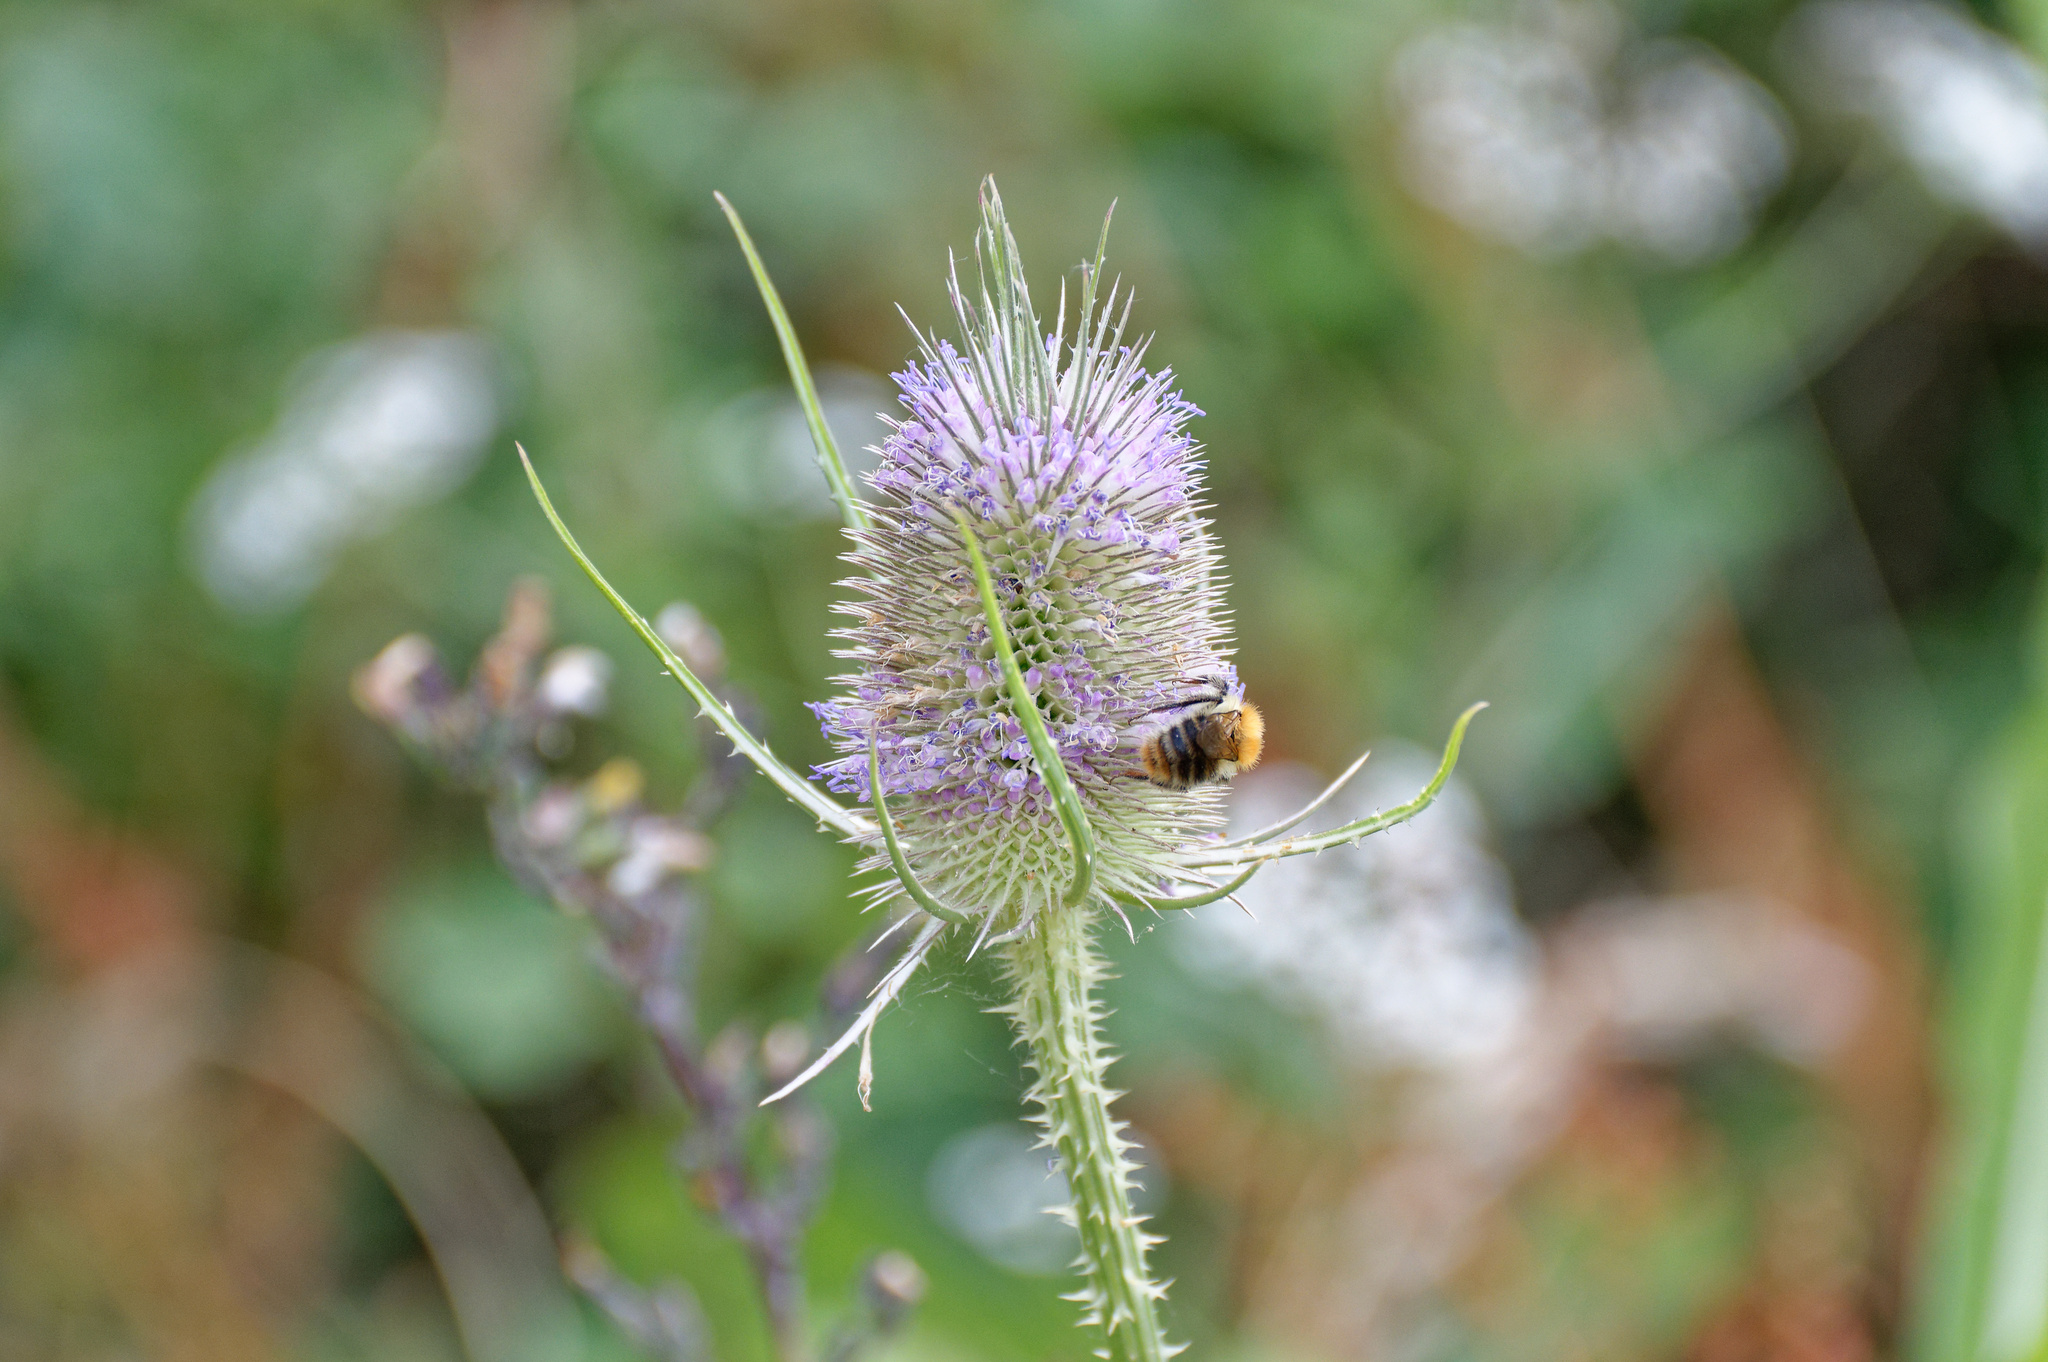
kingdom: Plantae
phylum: Tracheophyta
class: Magnoliopsida
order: Dipsacales
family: Caprifoliaceae
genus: Dipsacus
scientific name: Dipsacus fullonum
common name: Teasel
